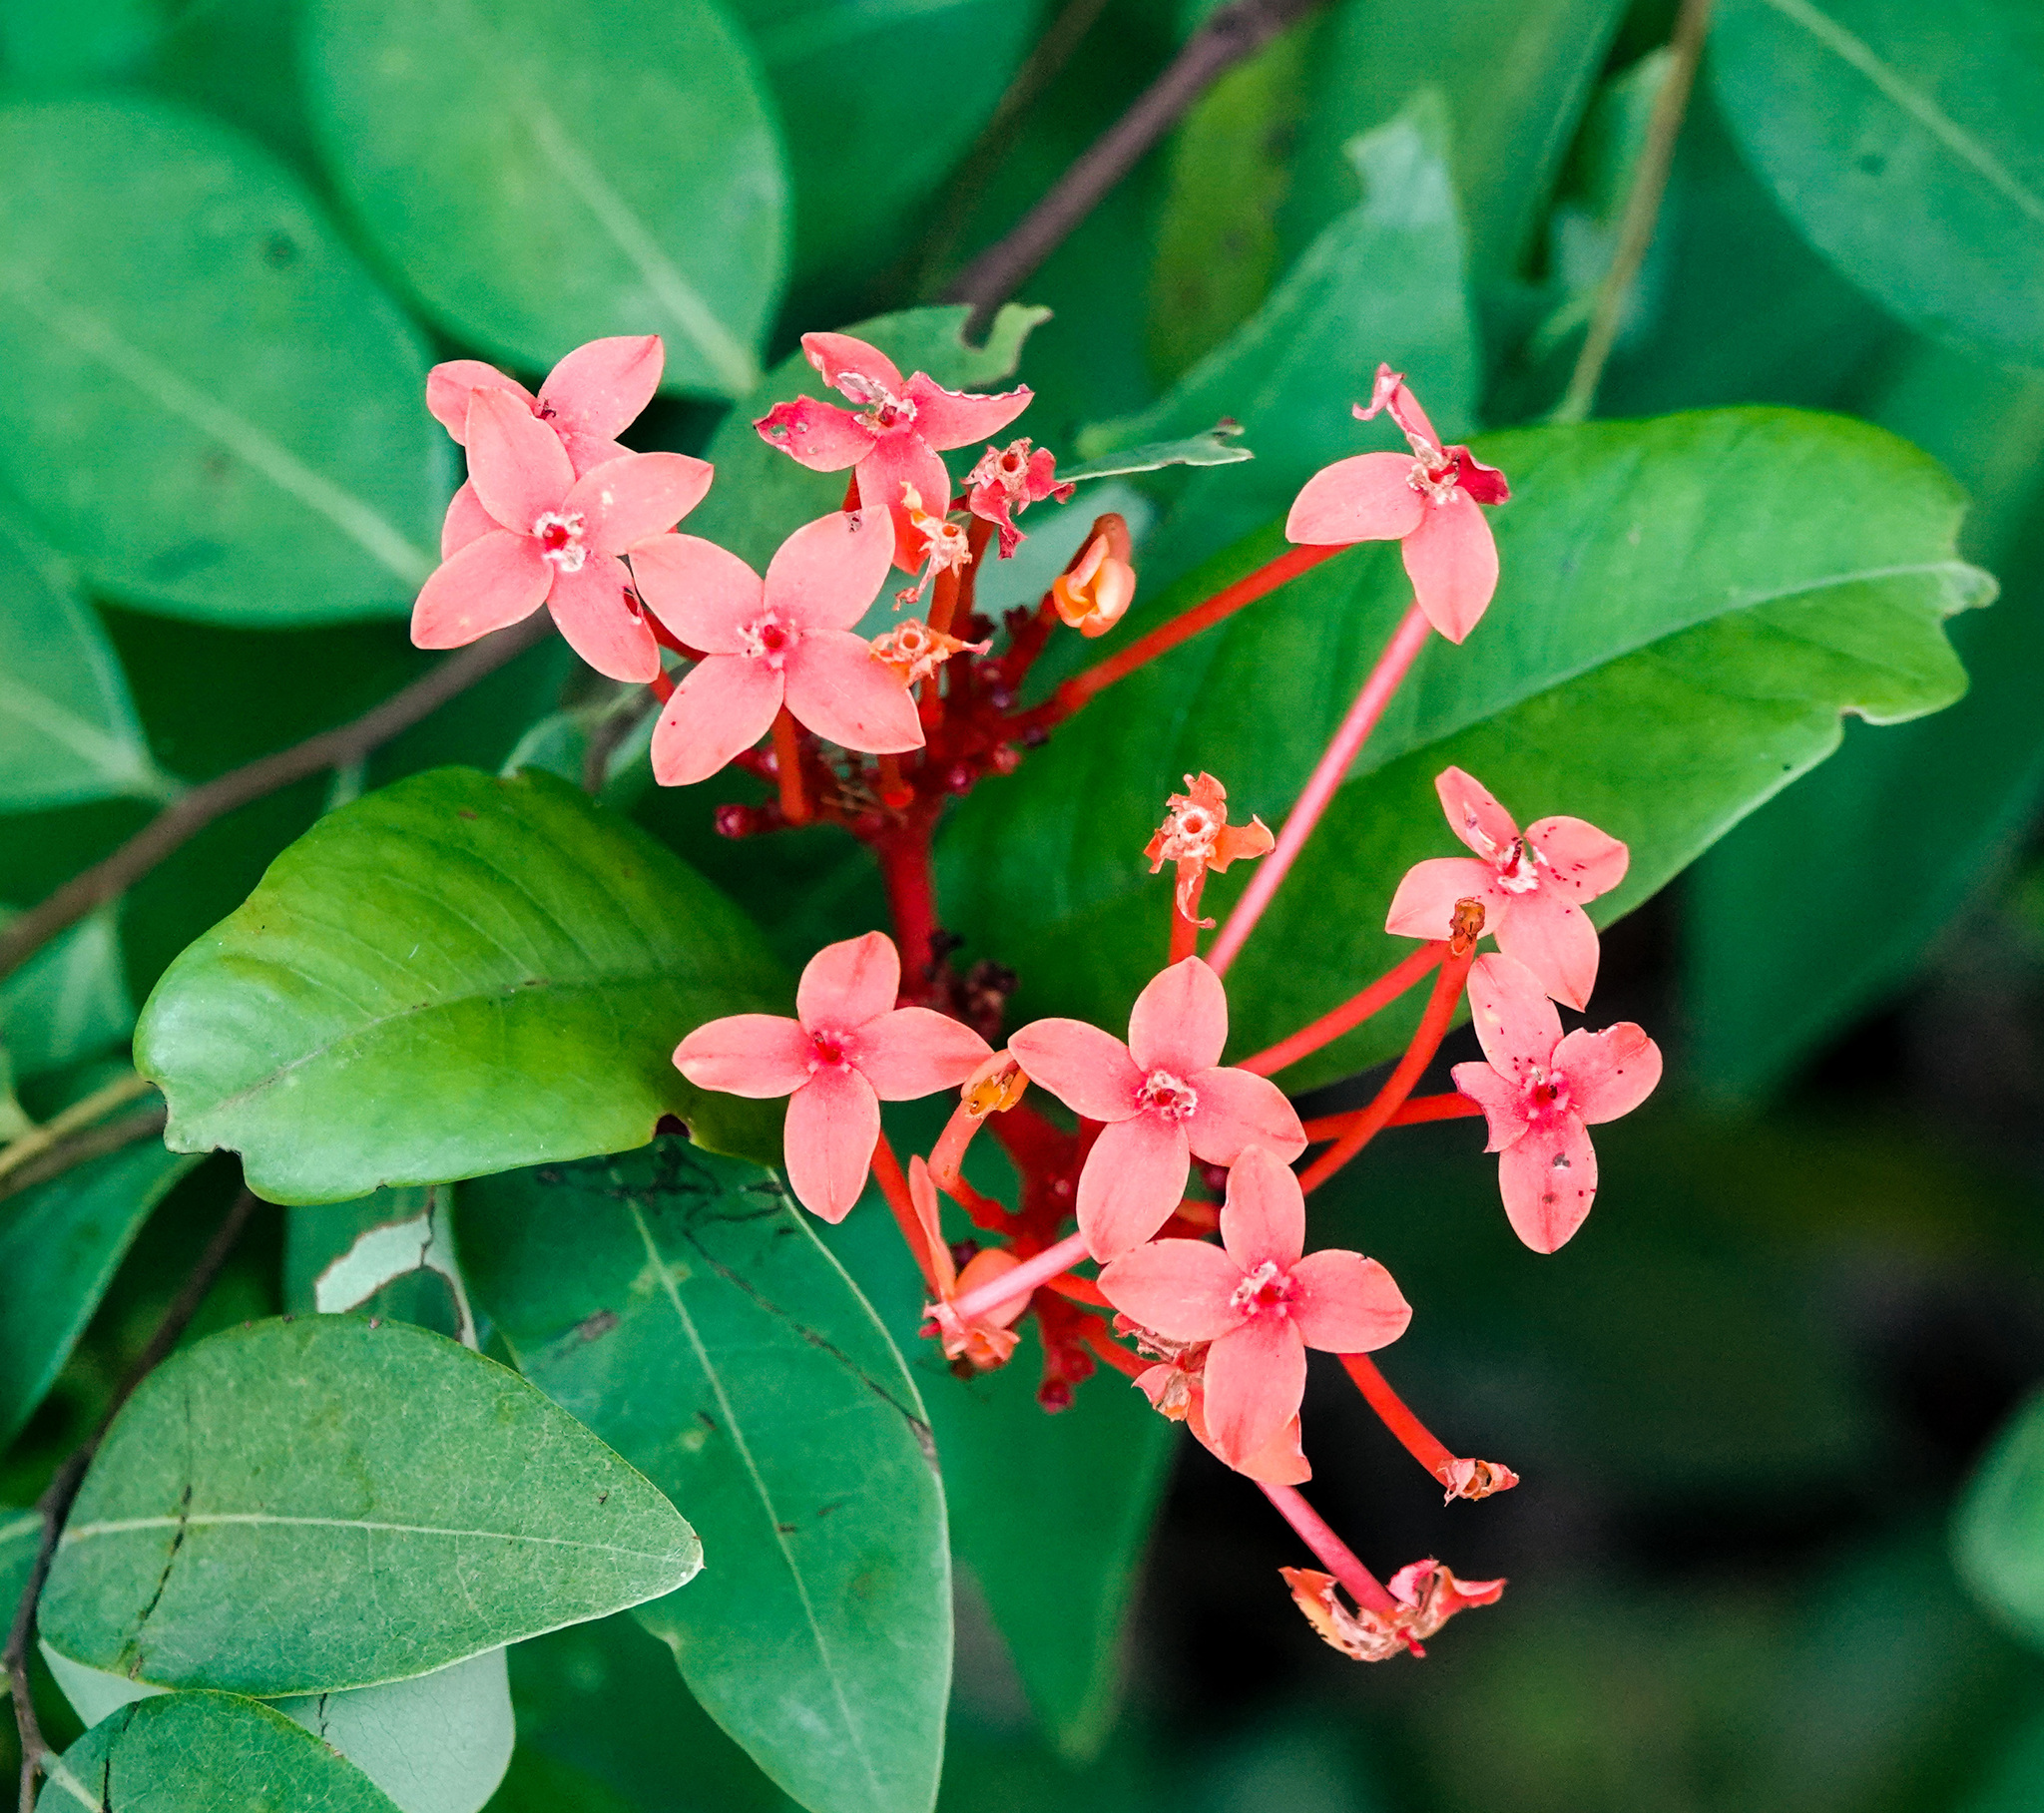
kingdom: Plantae
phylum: Tracheophyta
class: Magnoliopsida
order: Gentianales
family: Rubiaceae
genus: Ixora
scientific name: Ixora coccinea
